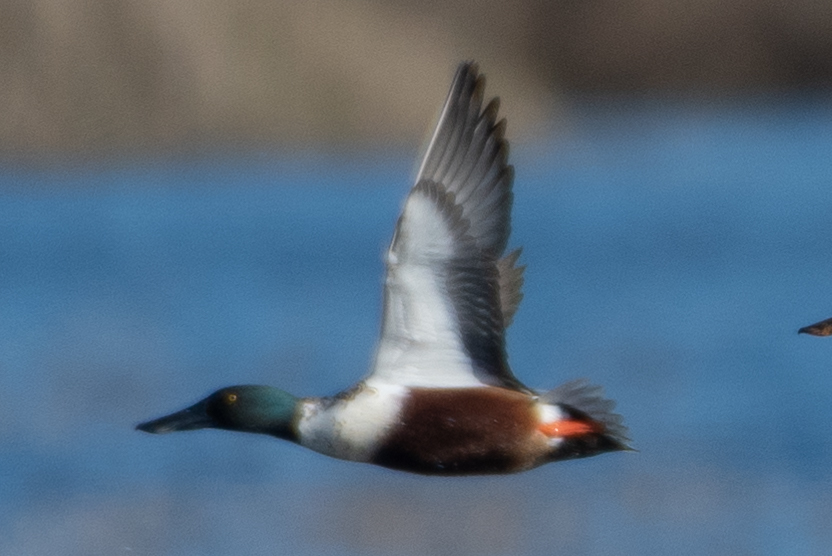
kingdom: Animalia
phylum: Chordata
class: Aves
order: Anseriformes
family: Anatidae
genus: Spatula
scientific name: Spatula clypeata
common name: Northern shoveler
